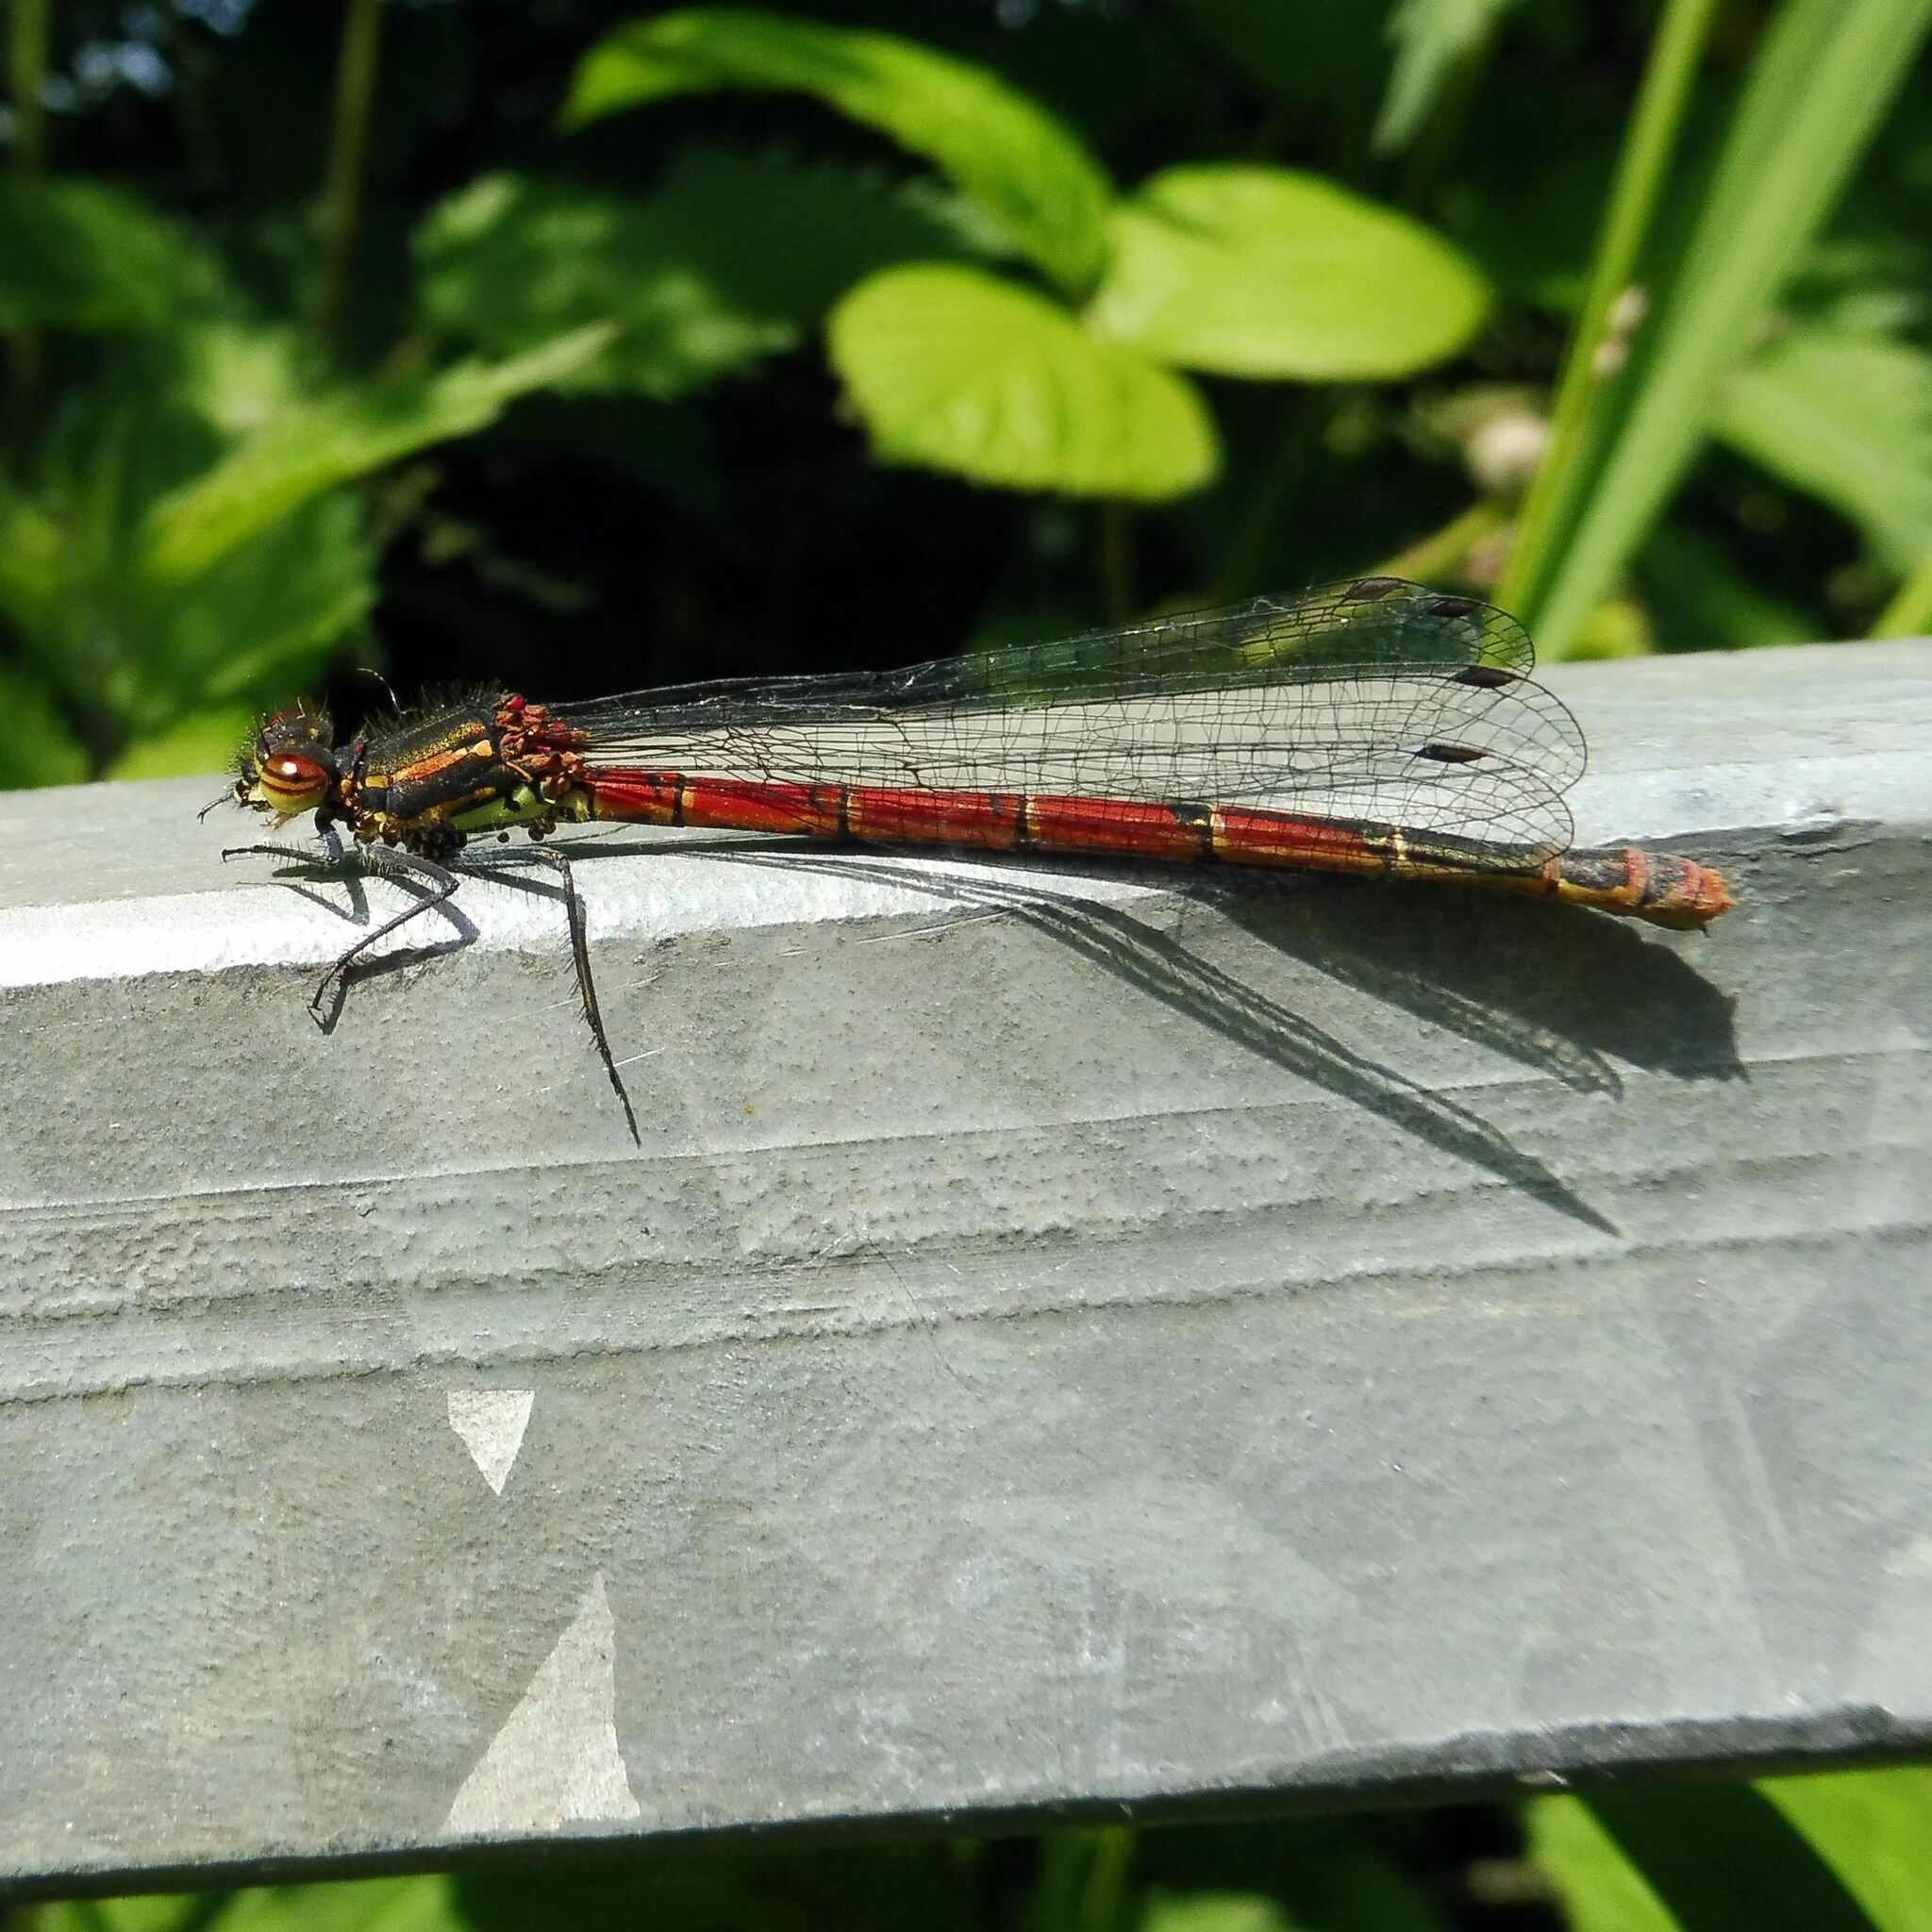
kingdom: Animalia
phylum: Arthropoda
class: Insecta
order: Odonata
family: Coenagrionidae
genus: Pyrrhosoma
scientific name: Pyrrhosoma nymphula
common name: Large red damsel
